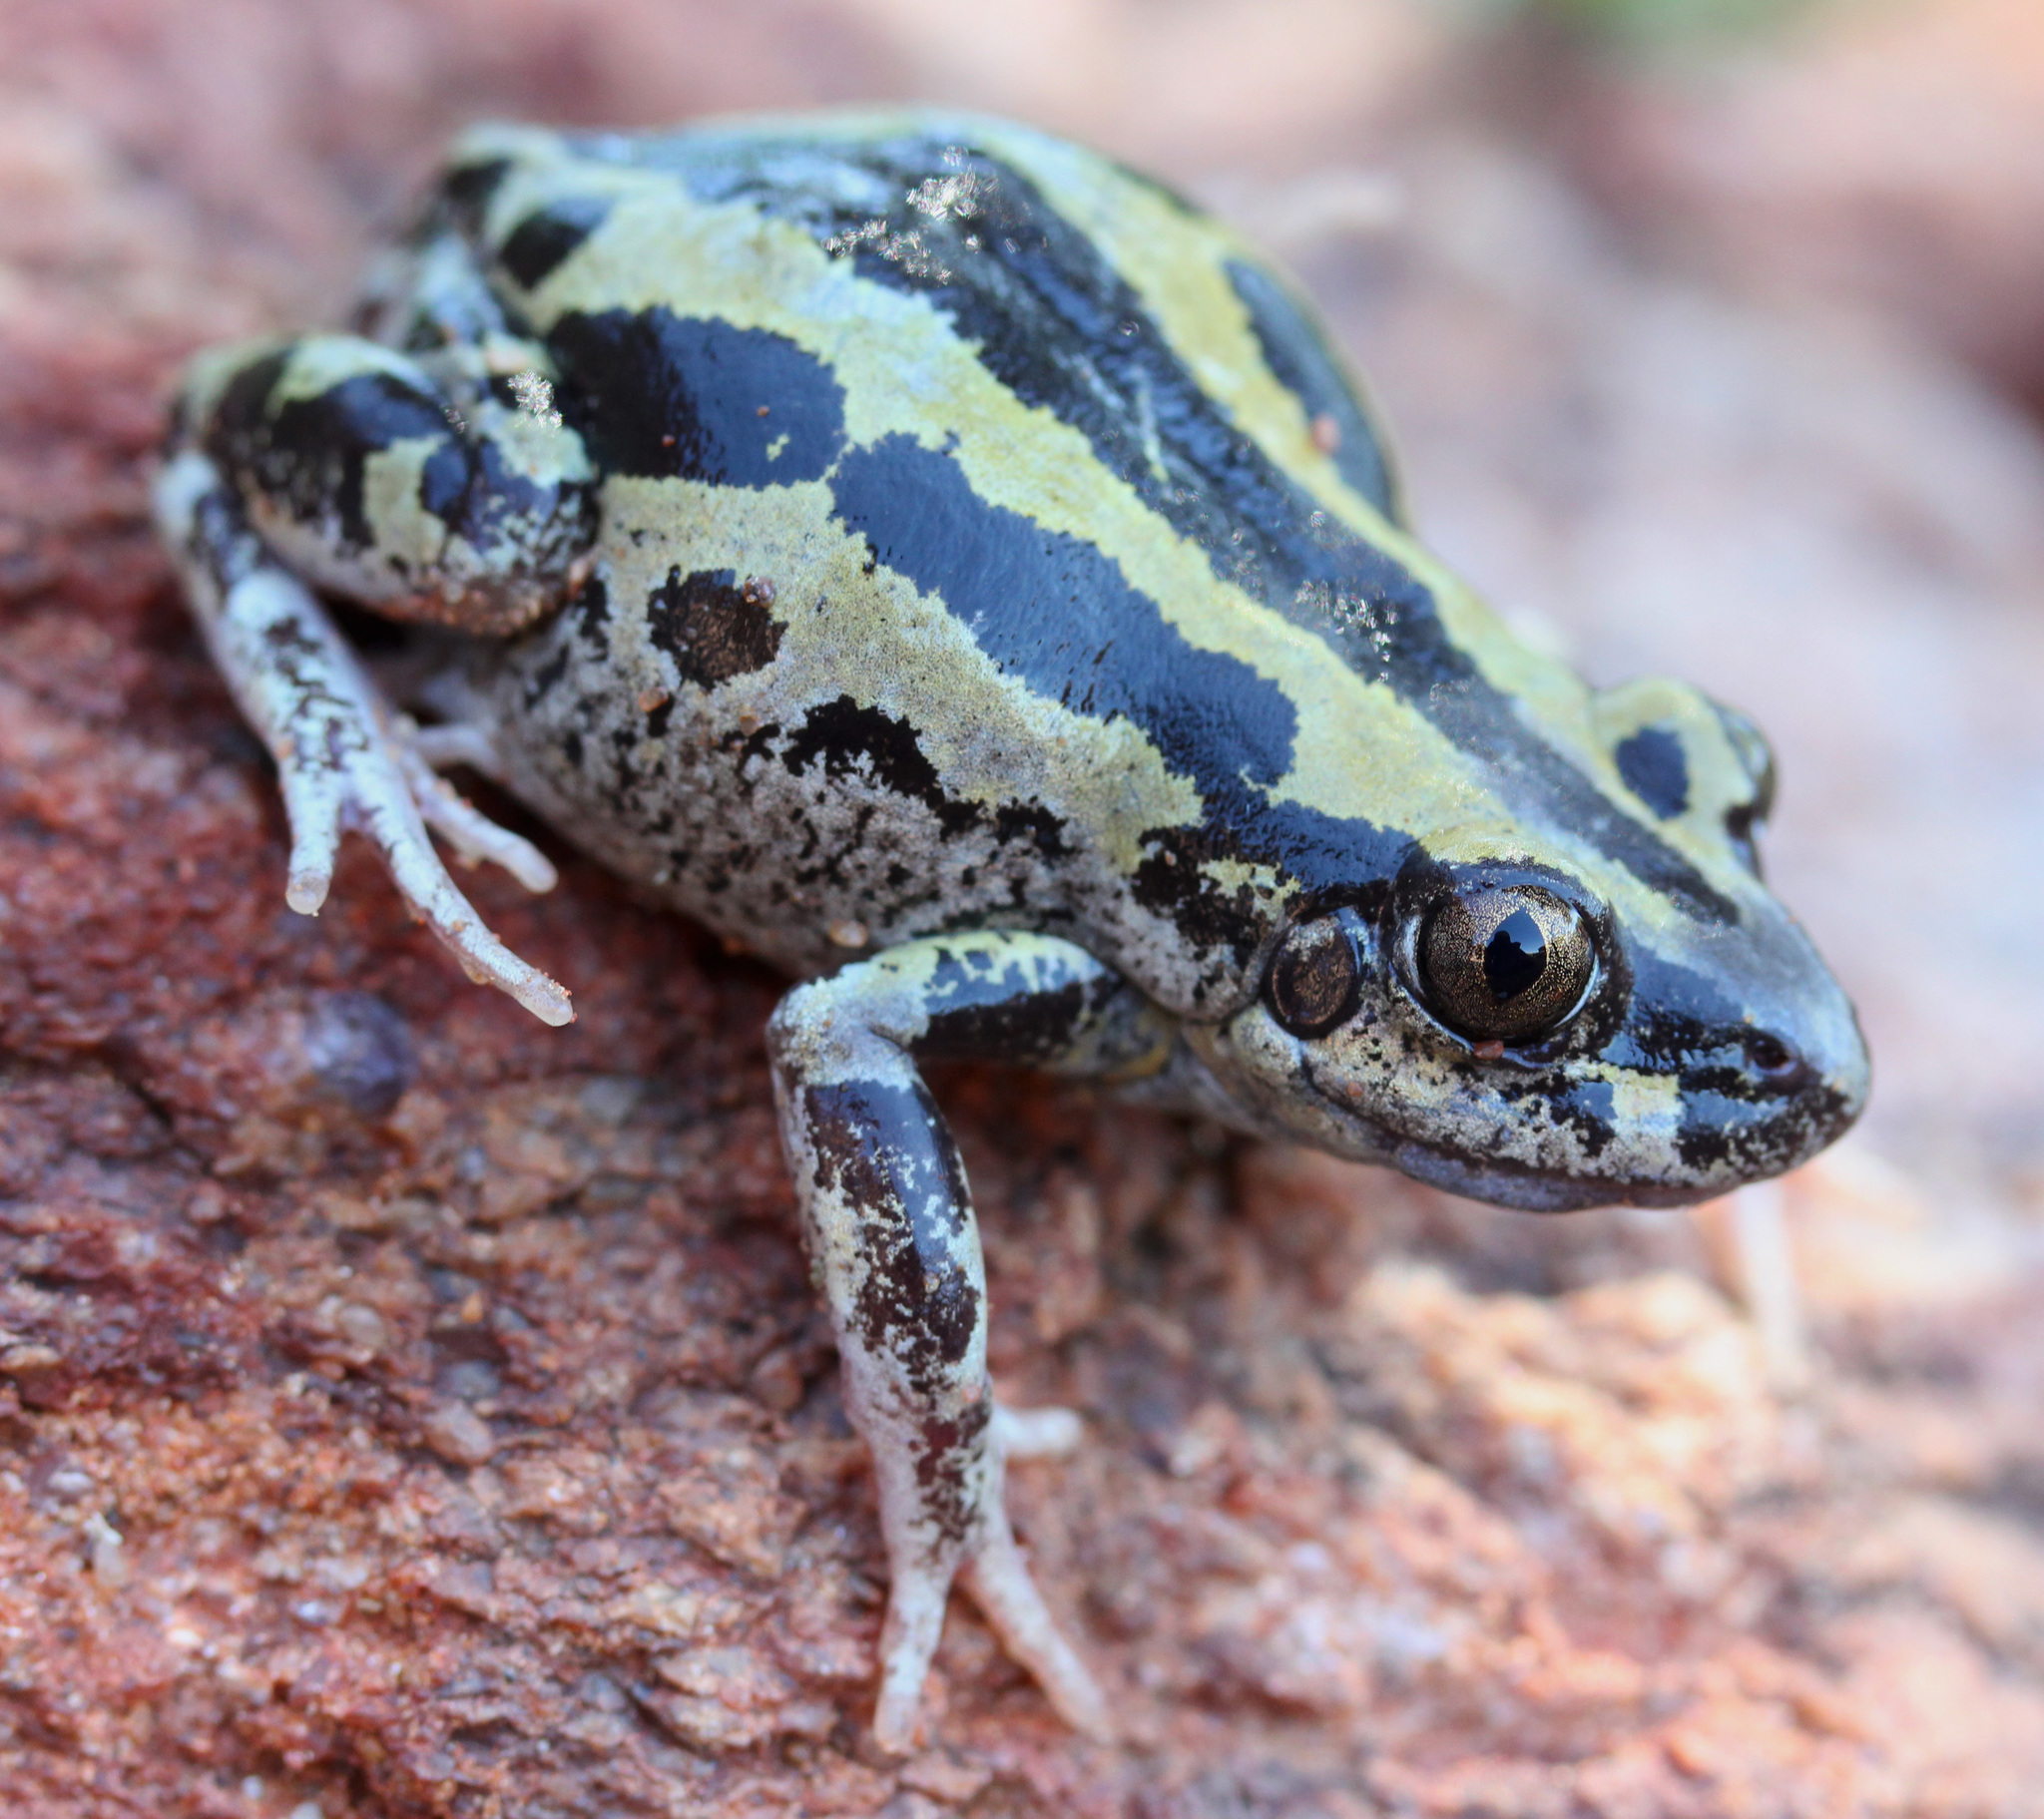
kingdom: Animalia
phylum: Chordata
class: Amphibia
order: Anura
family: Hyperoliidae
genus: Kassina
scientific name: Kassina senegalensis
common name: Senegal land frog
